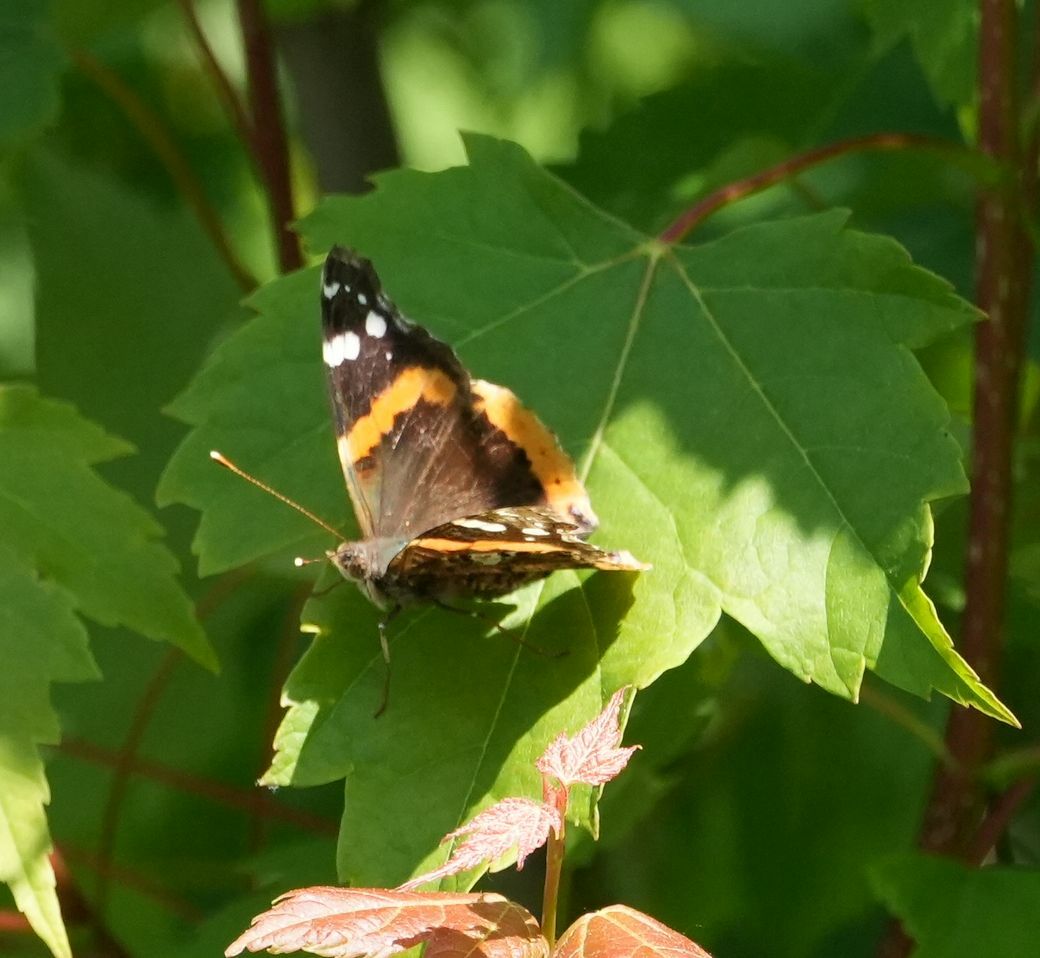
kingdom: Animalia
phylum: Arthropoda
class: Insecta
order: Lepidoptera
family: Nymphalidae
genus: Vanessa
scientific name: Vanessa atalanta
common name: Red admiral
